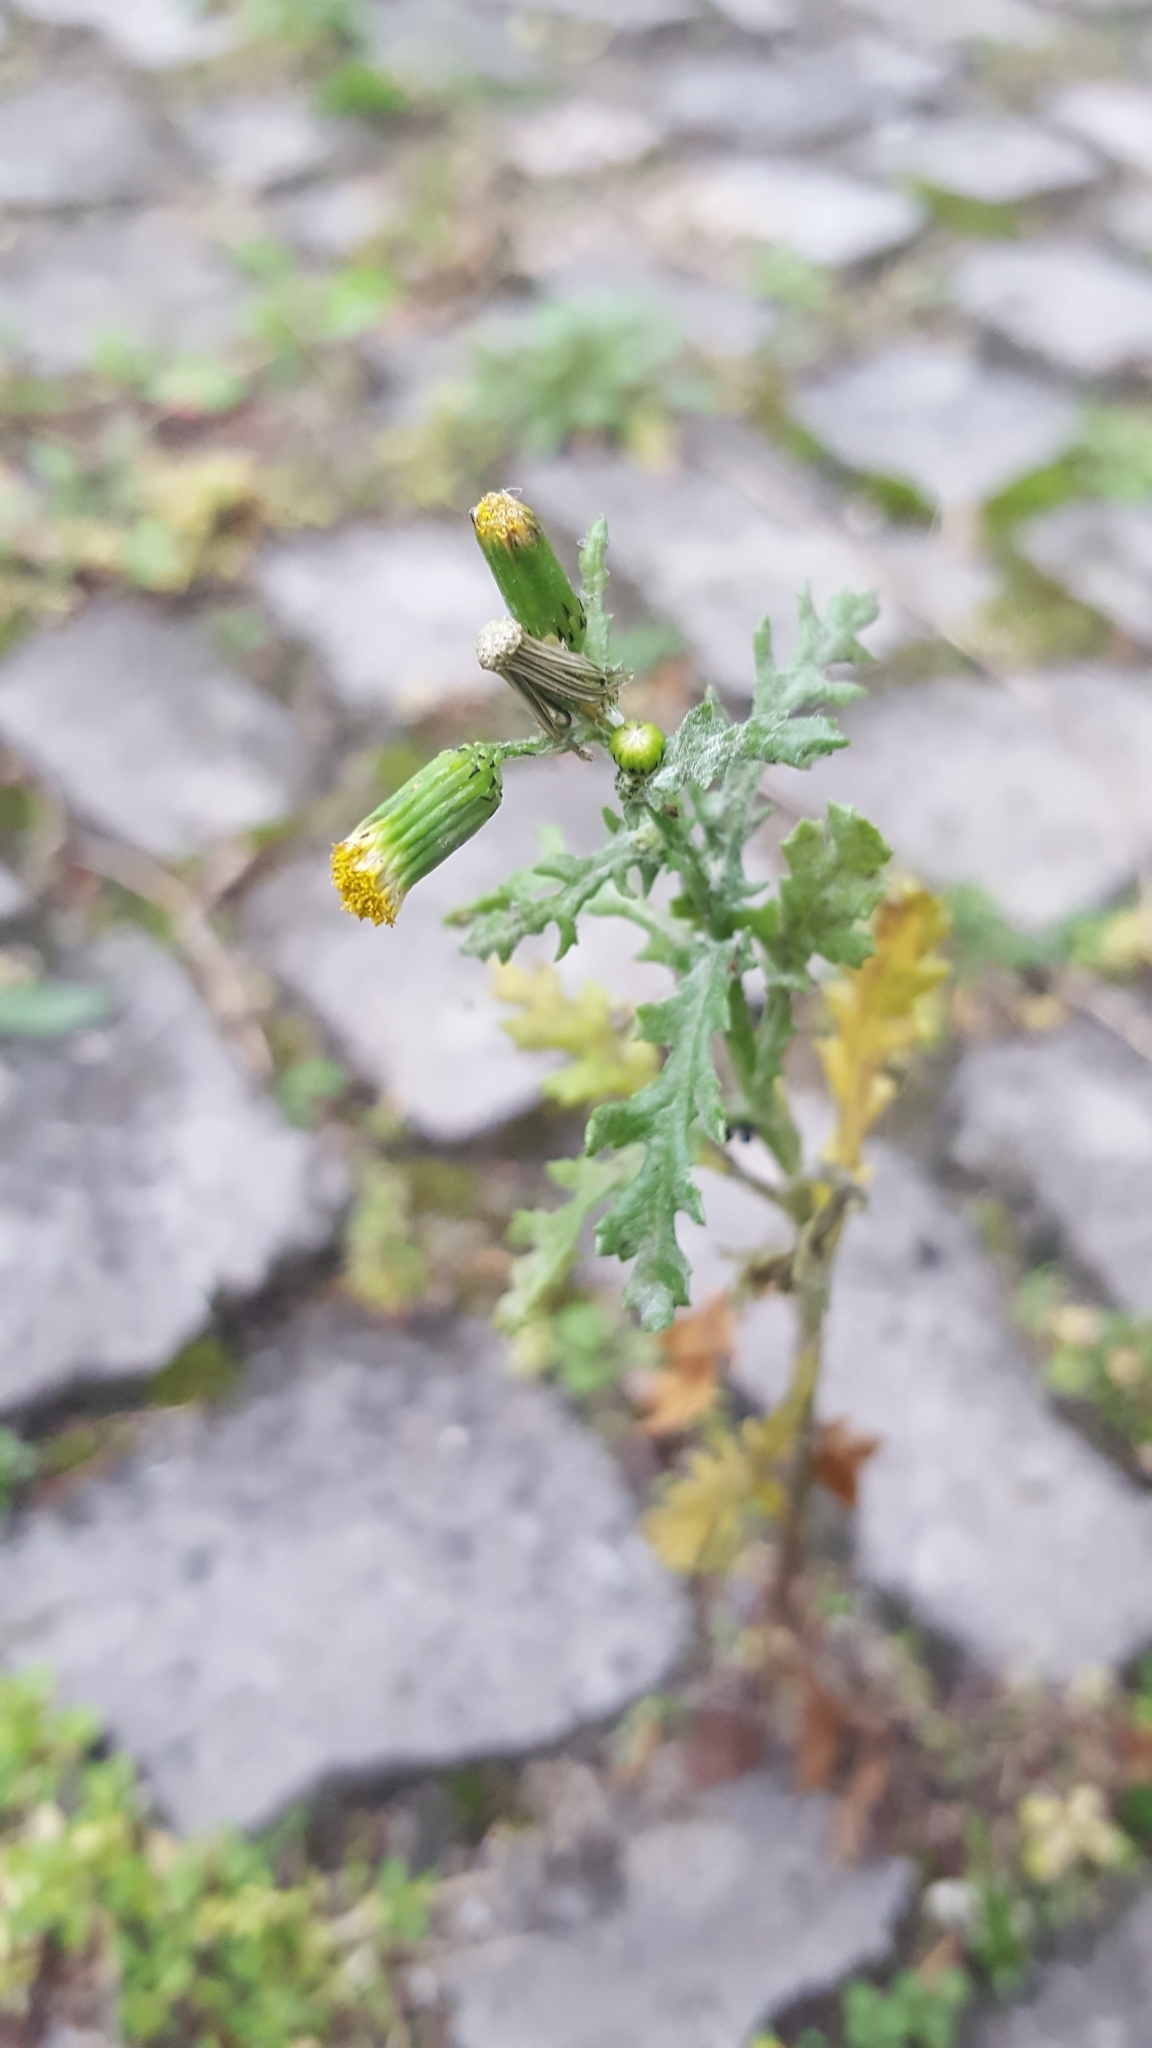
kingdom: Plantae
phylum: Tracheophyta
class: Magnoliopsida
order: Asterales
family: Asteraceae
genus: Senecio
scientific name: Senecio vulgaris
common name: Old-man-in-the-spring
